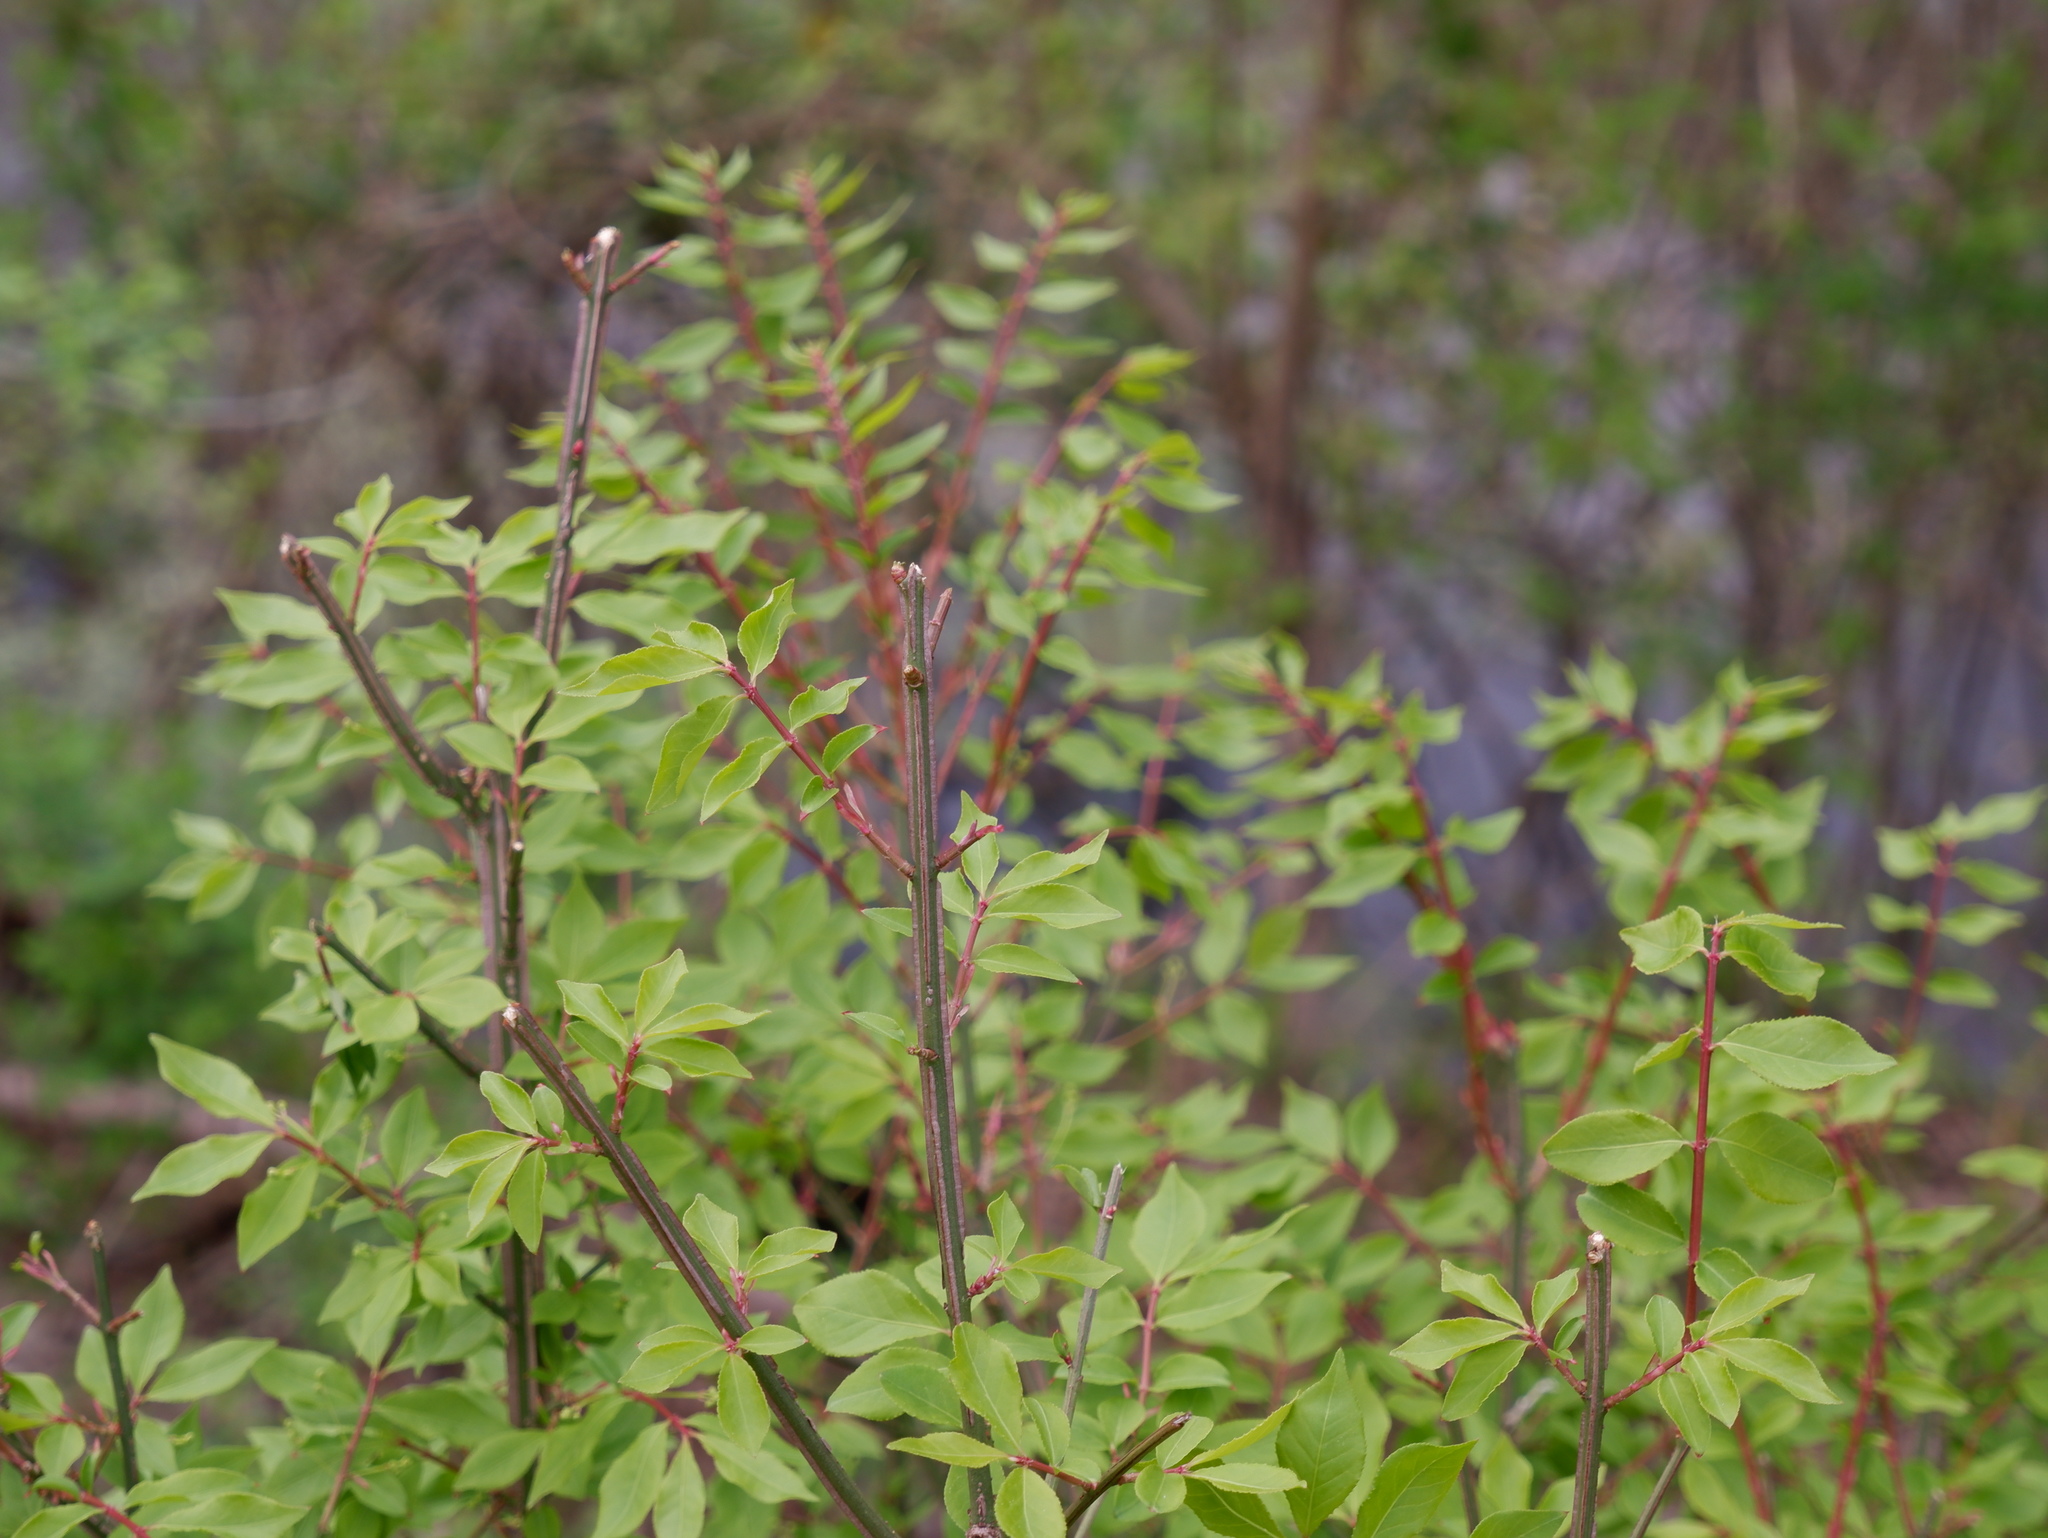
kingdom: Plantae
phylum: Tracheophyta
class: Magnoliopsida
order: Celastrales
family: Celastraceae
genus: Euonymus
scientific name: Euonymus alatus
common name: Winged euonymus
